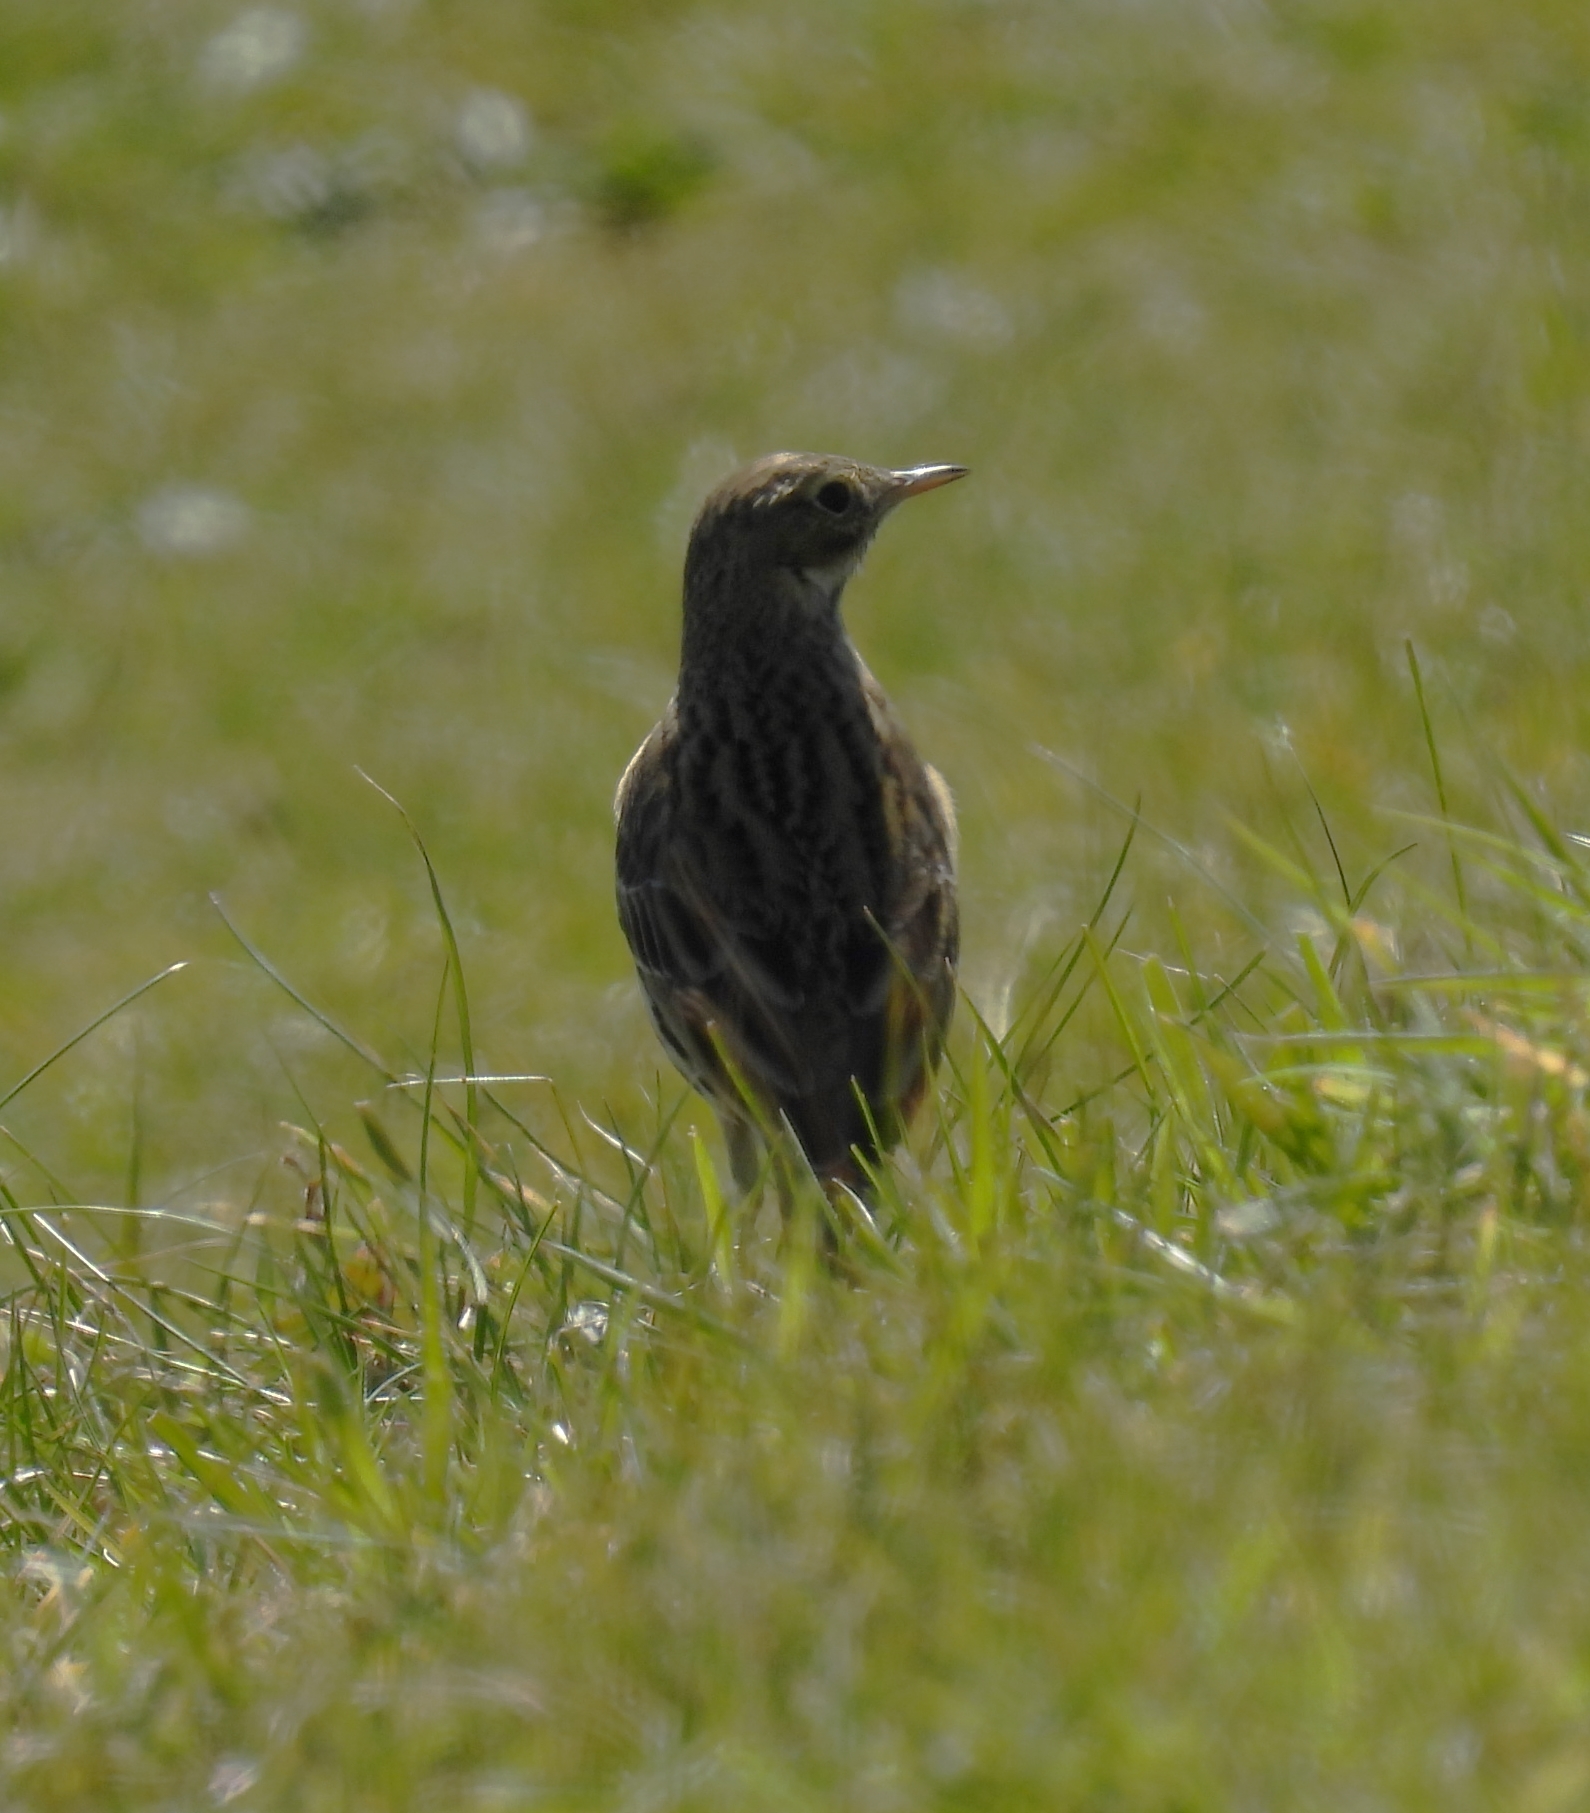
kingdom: Animalia
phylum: Chordata
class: Aves
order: Passeriformes
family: Motacillidae
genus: Anthus
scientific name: Anthus pratensis
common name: Meadow pipit
